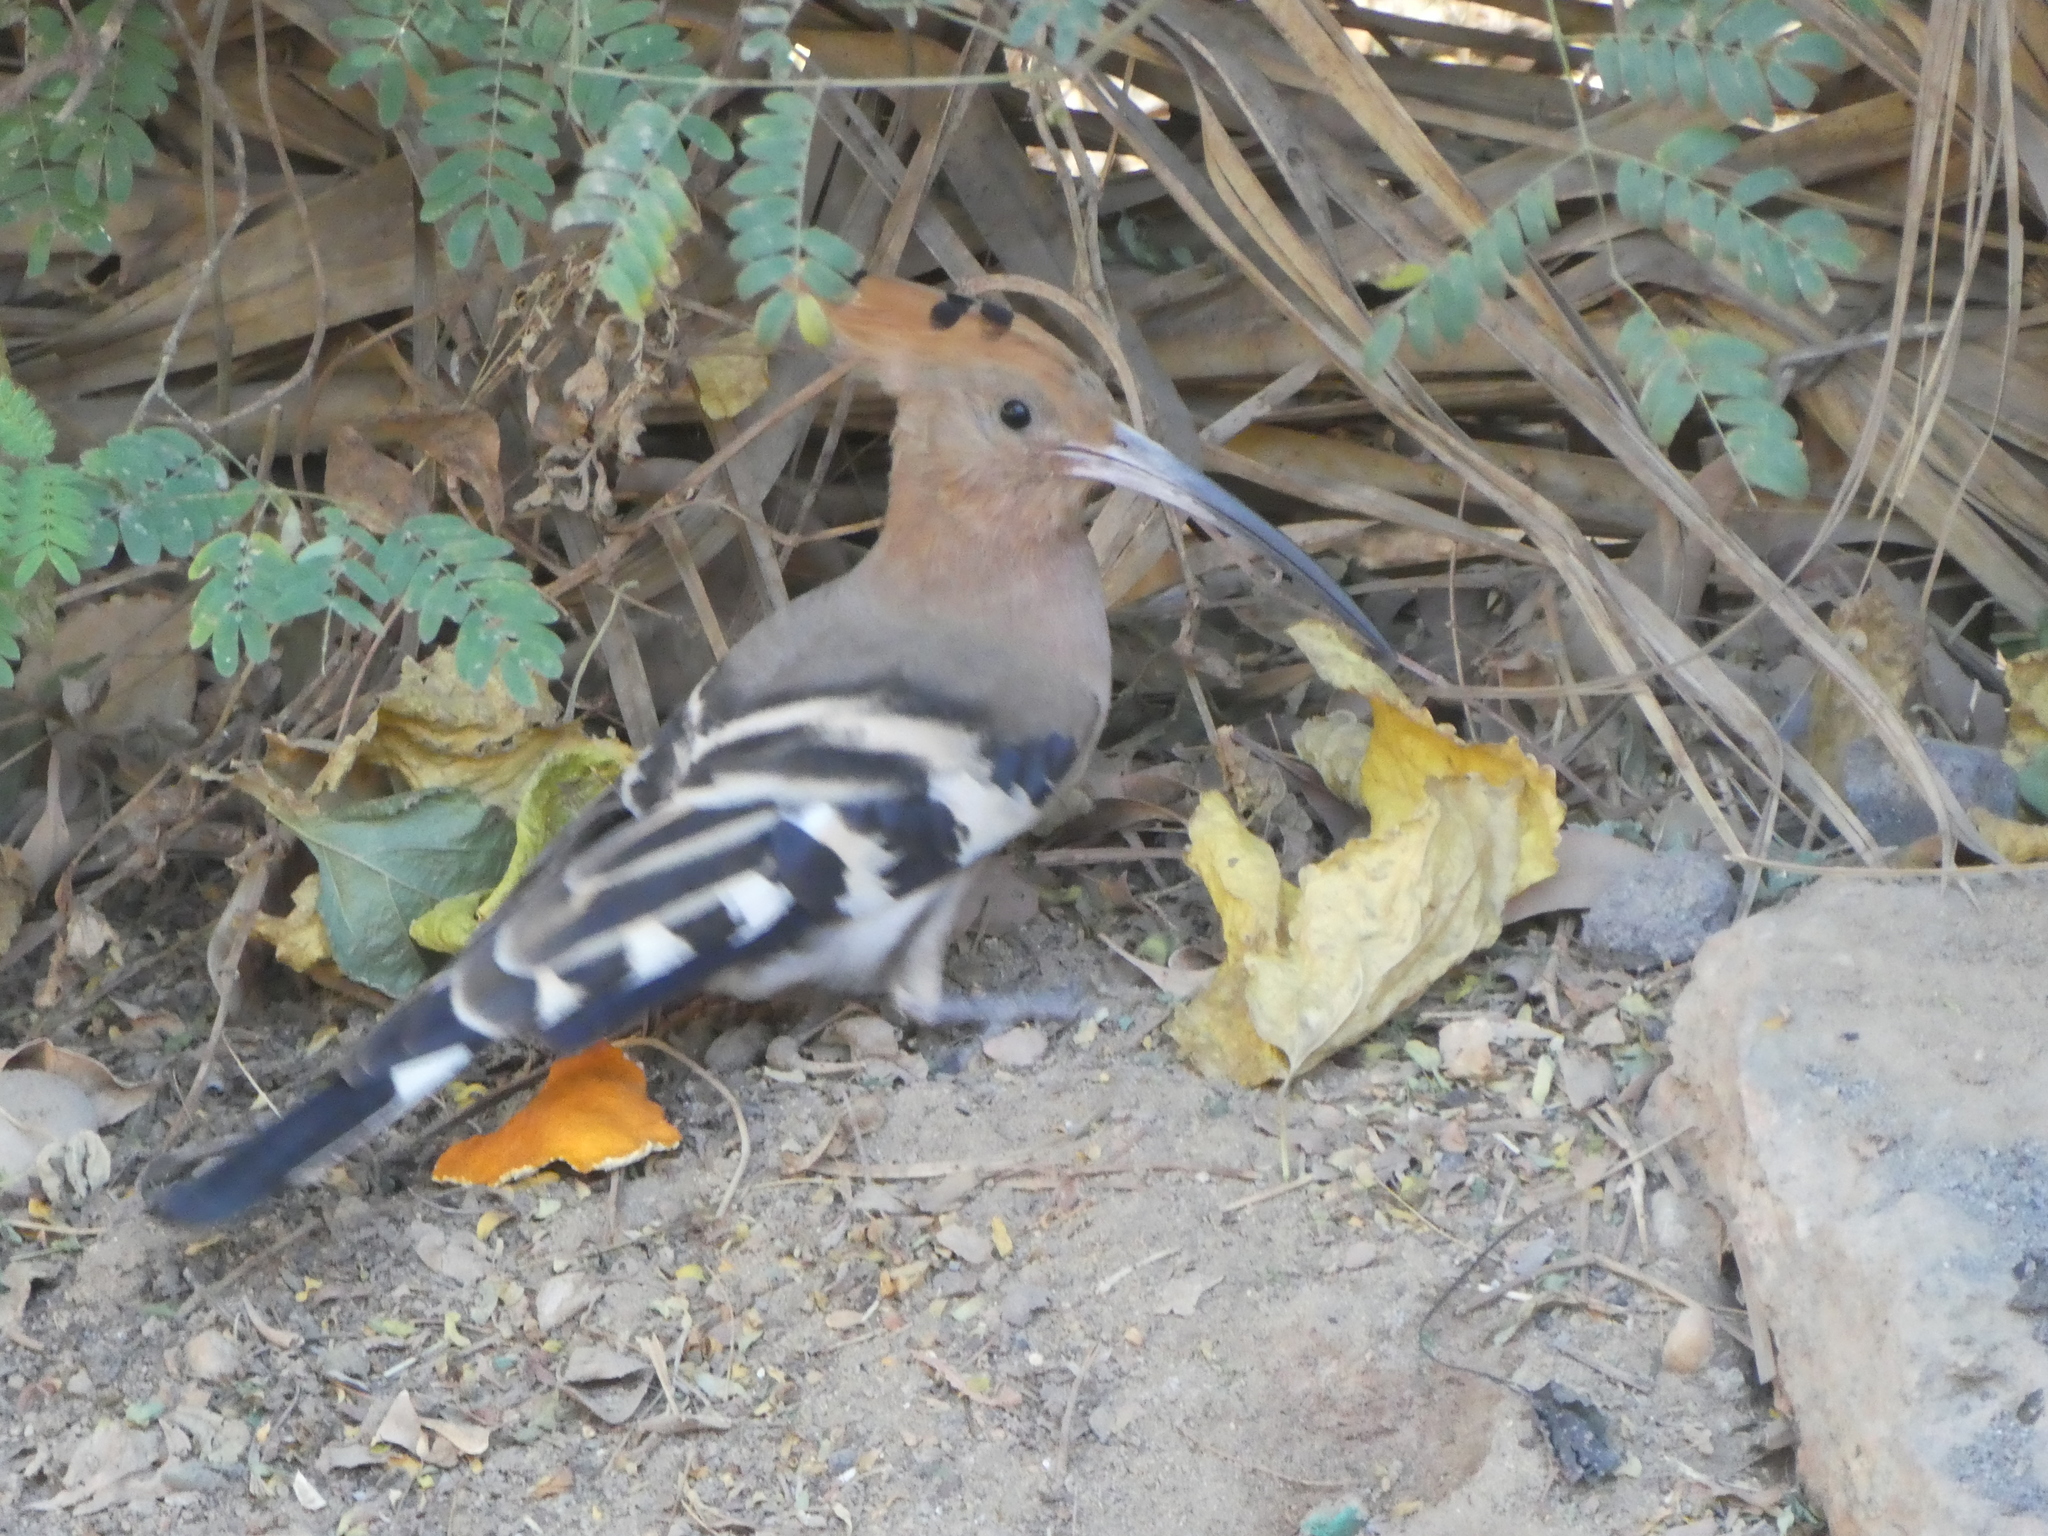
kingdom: Animalia
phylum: Chordata
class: Aves
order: Bucerotiformes
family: Upupidae
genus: Upupa
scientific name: Upupa epops
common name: Eurasian hoopoe
